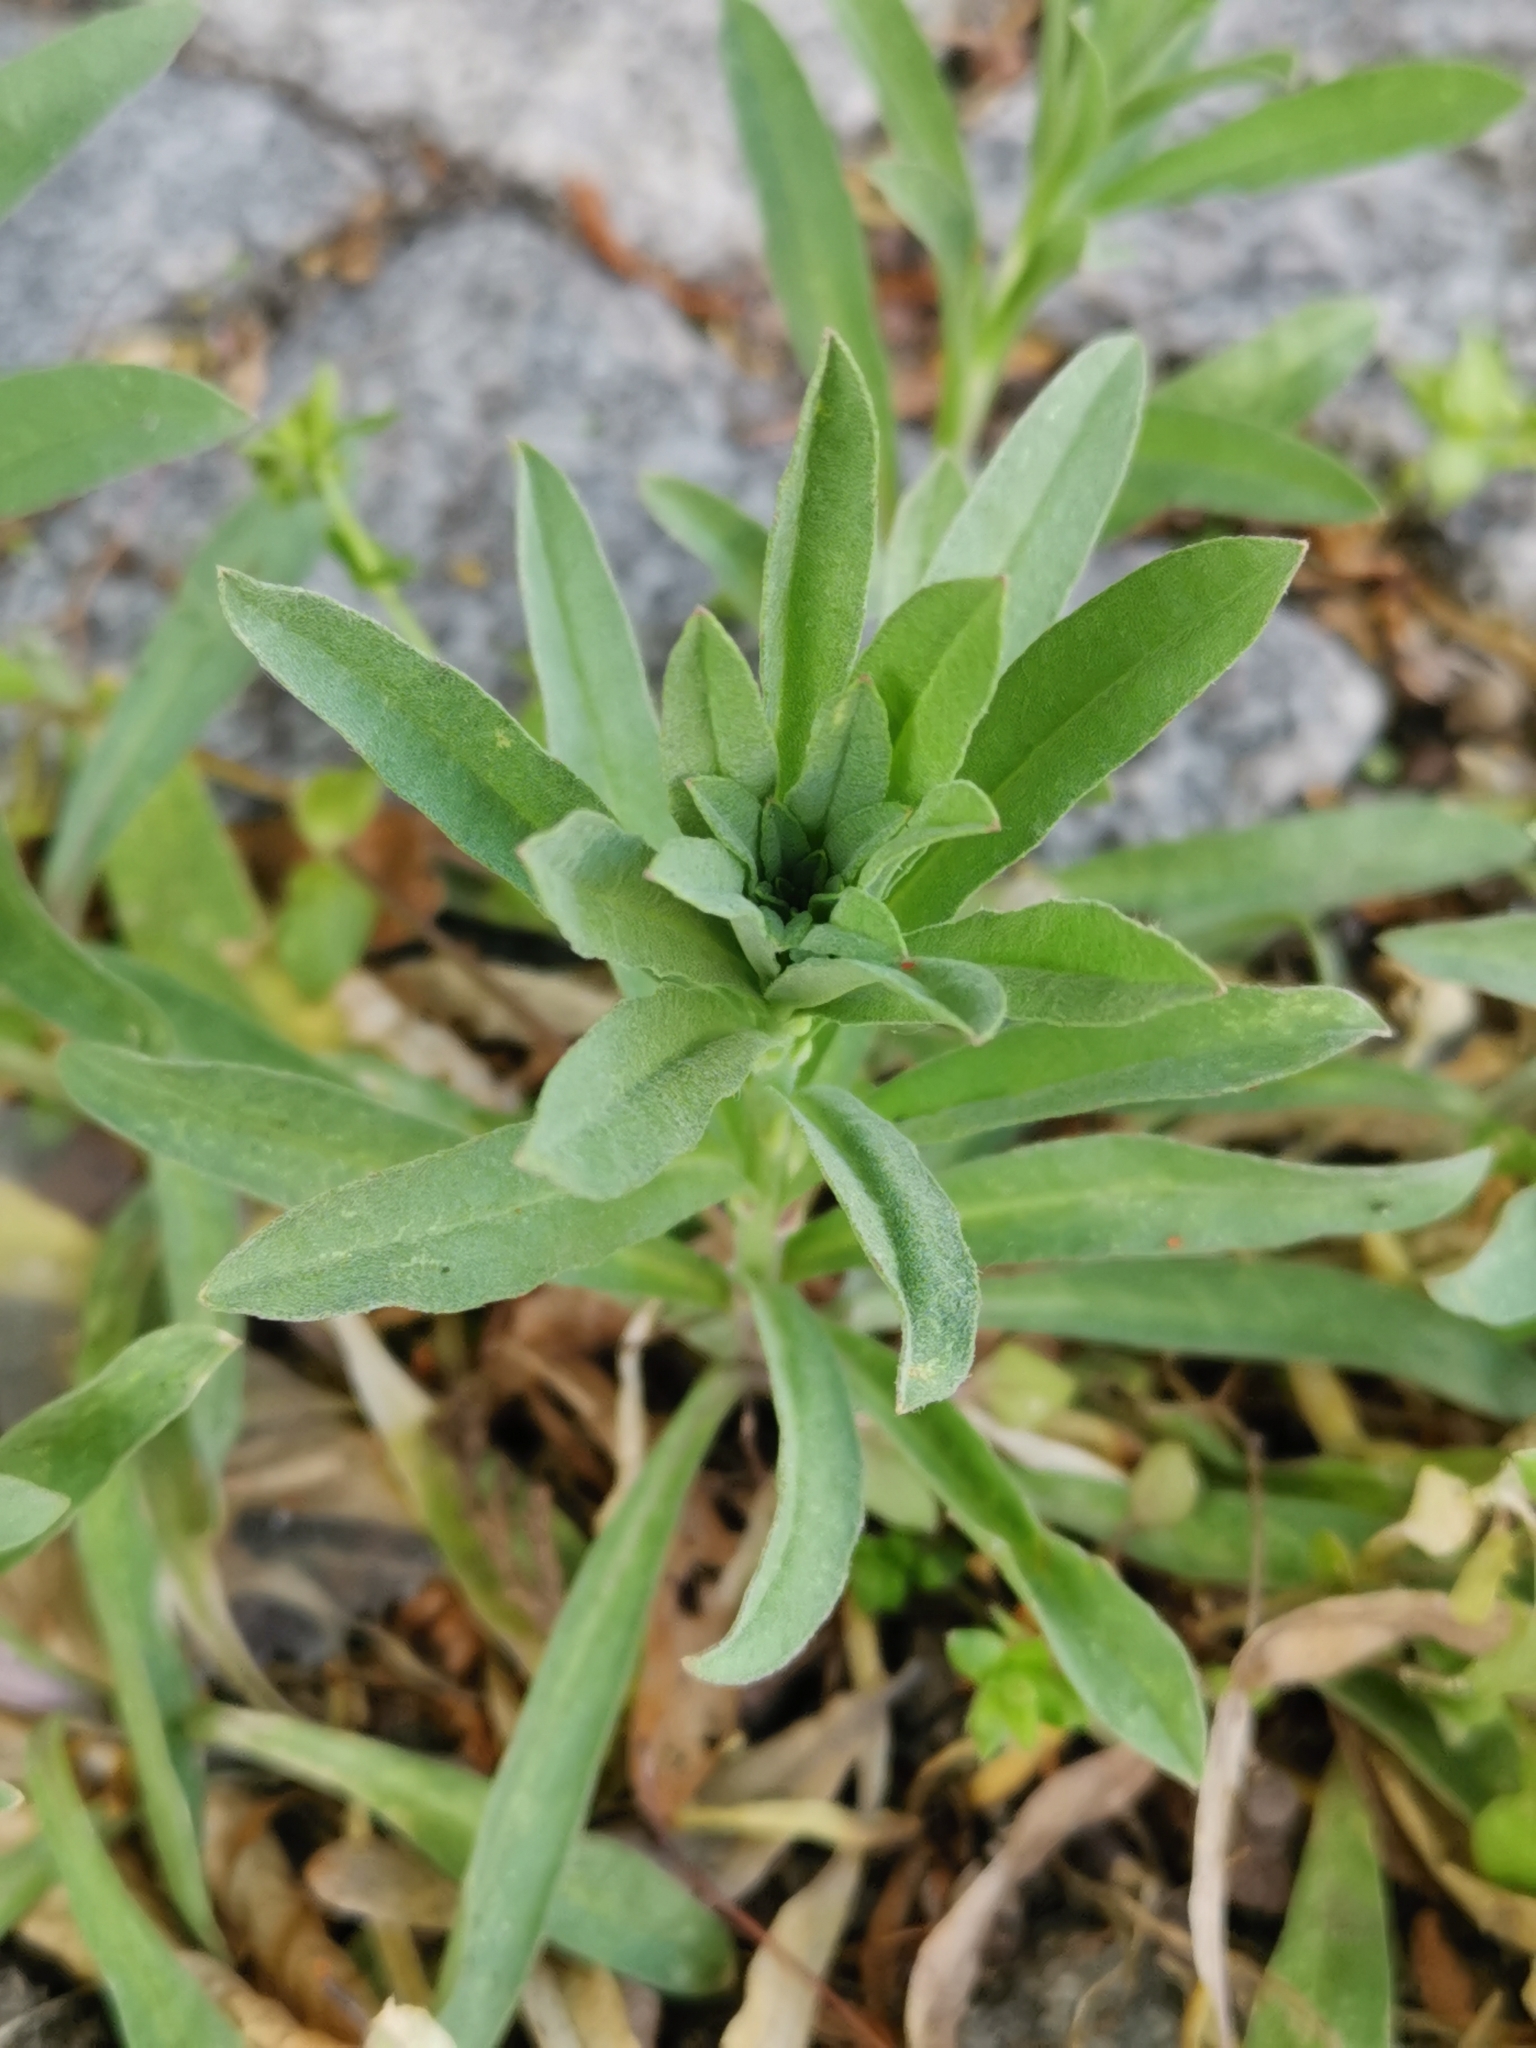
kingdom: Plantae
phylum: Tracheophyta
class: Magnoliopsida
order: Brassicales
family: Brassicaceae
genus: Berteroa
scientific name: Berteroa incana
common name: Hoary alison
